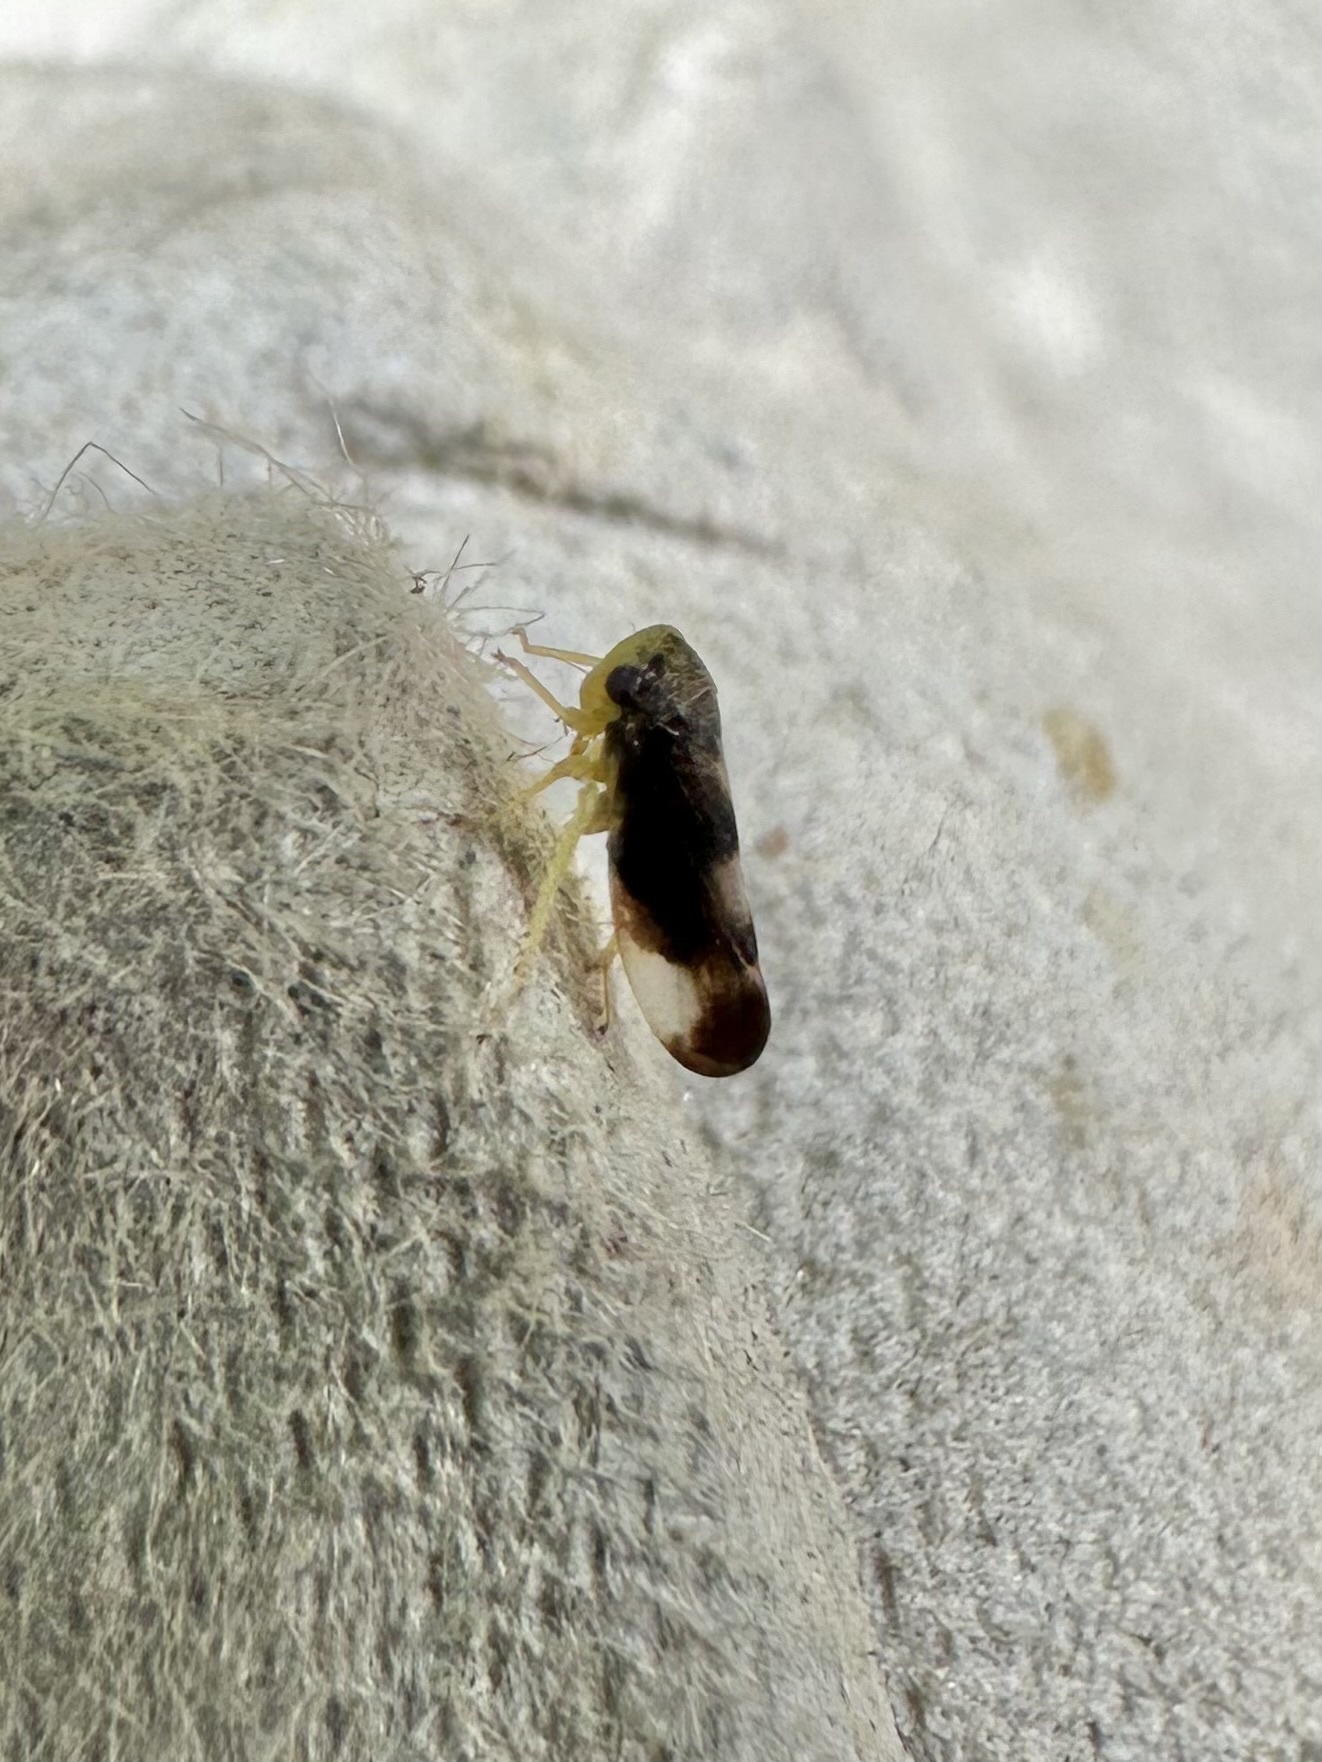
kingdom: Animalia
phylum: Arthropoda
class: Insecta
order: Hemiptera
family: Cicadellidae
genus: Pediopsoides
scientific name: Pediopsoides distinctus
